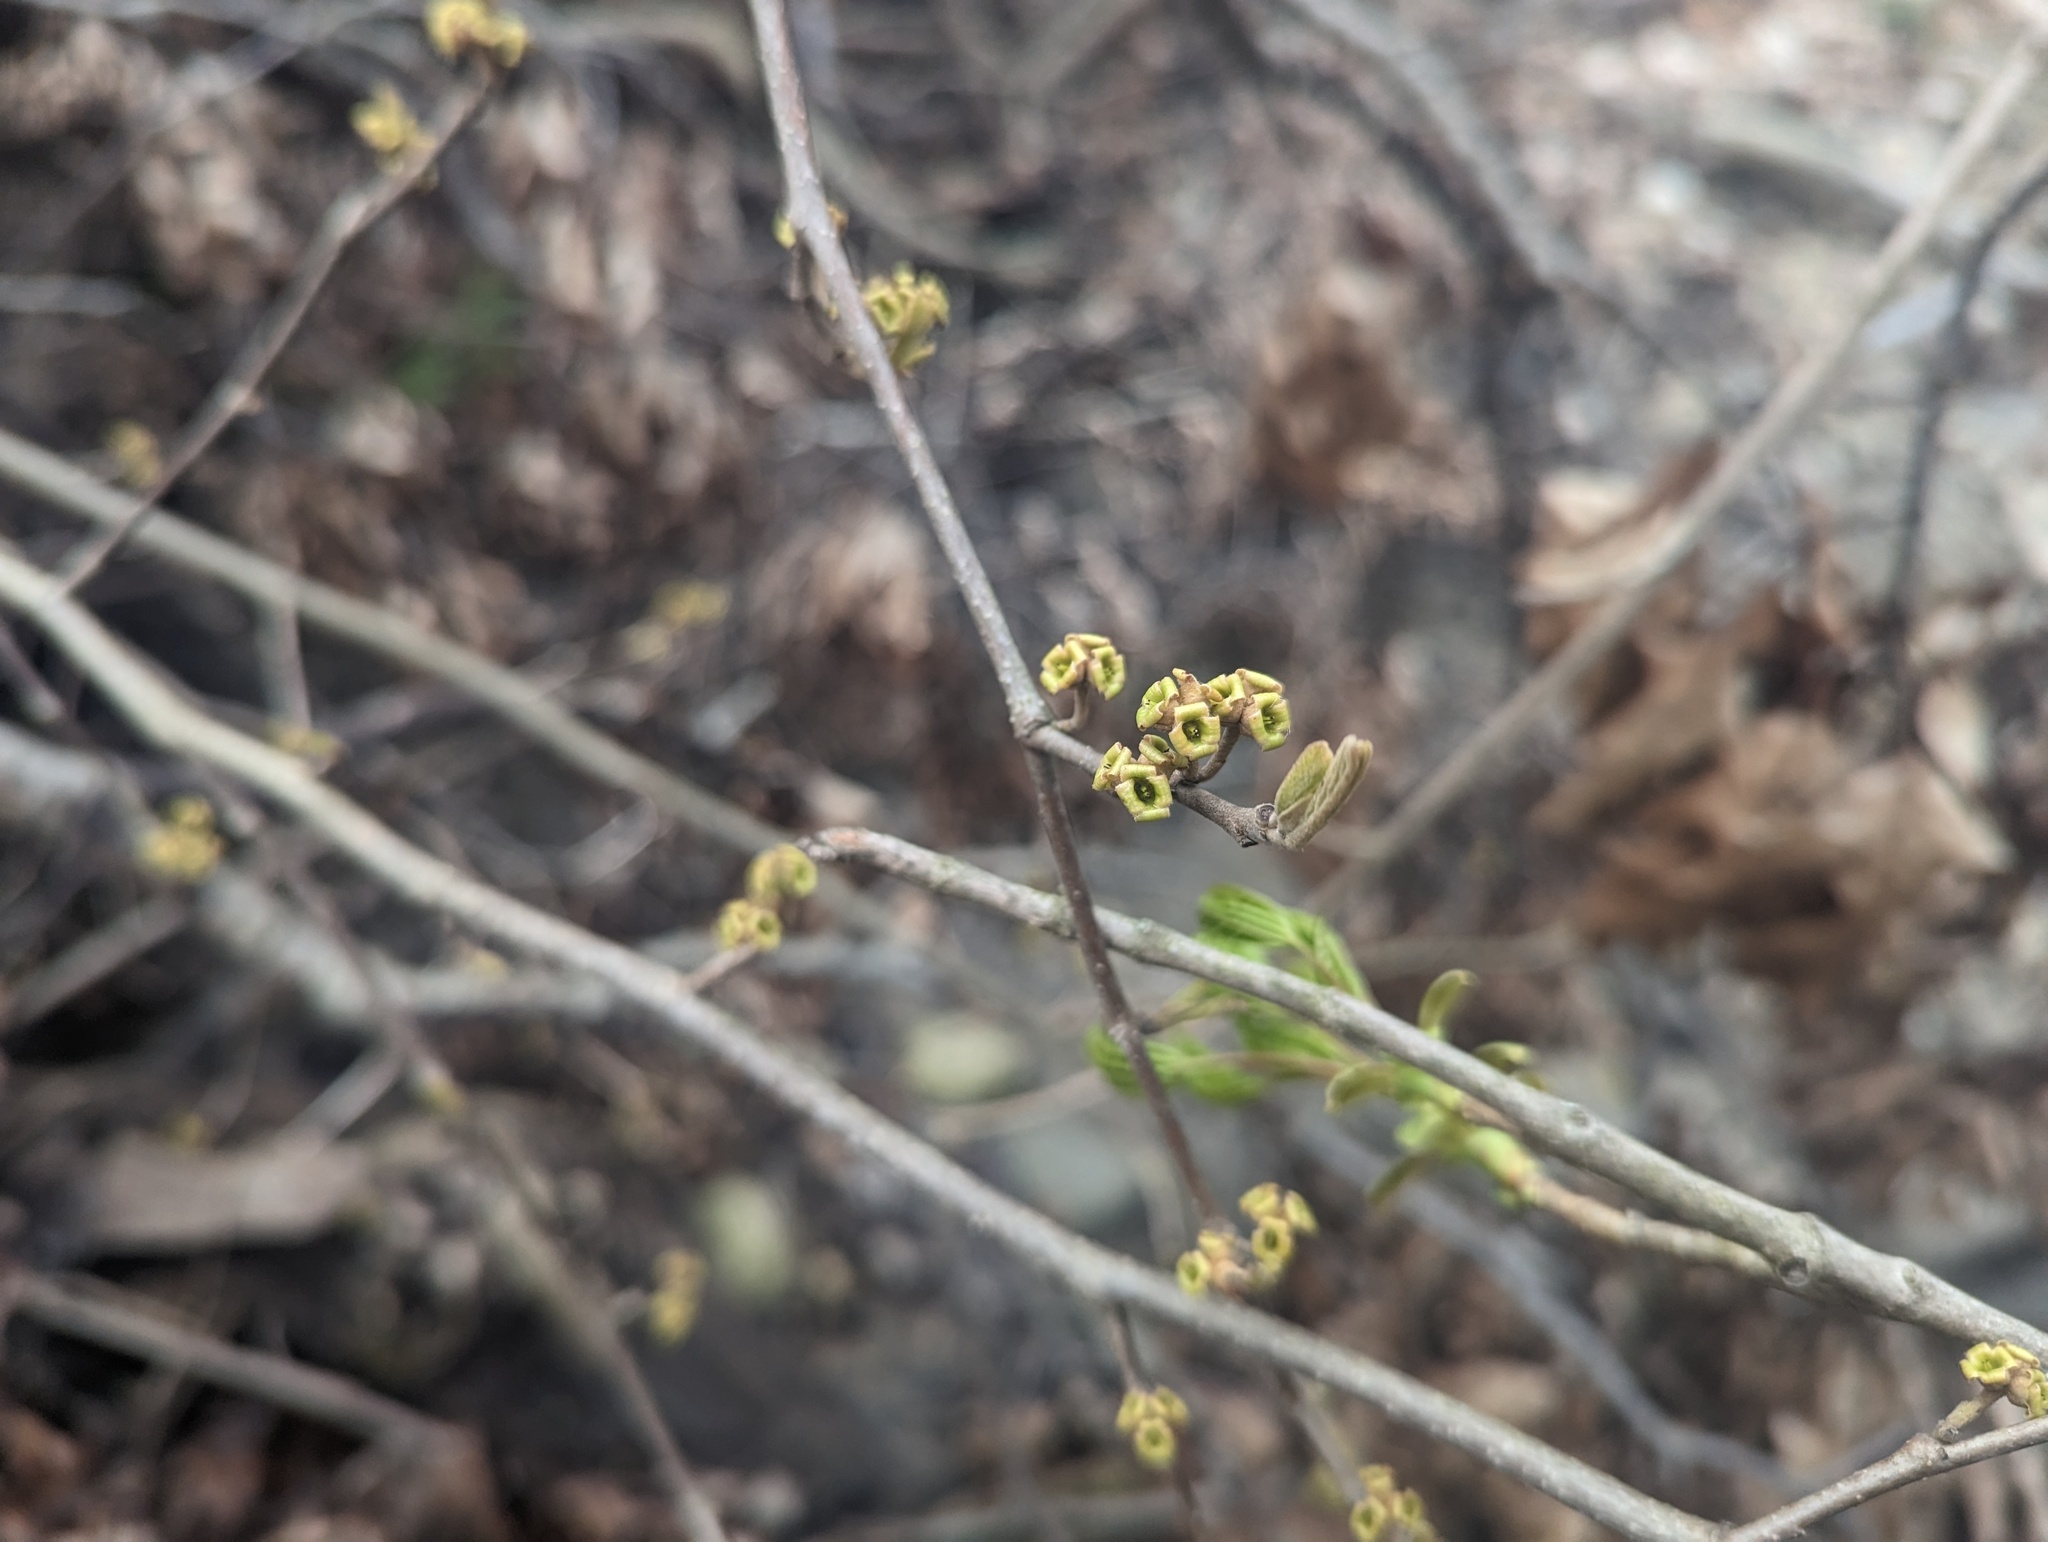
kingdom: Plantae
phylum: Tracheophyta
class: Magnoliopsida
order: Saxifragales
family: Hamamelidaceae
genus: Hamamelis
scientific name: Hamamelis virginiana
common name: Witch-hazel
